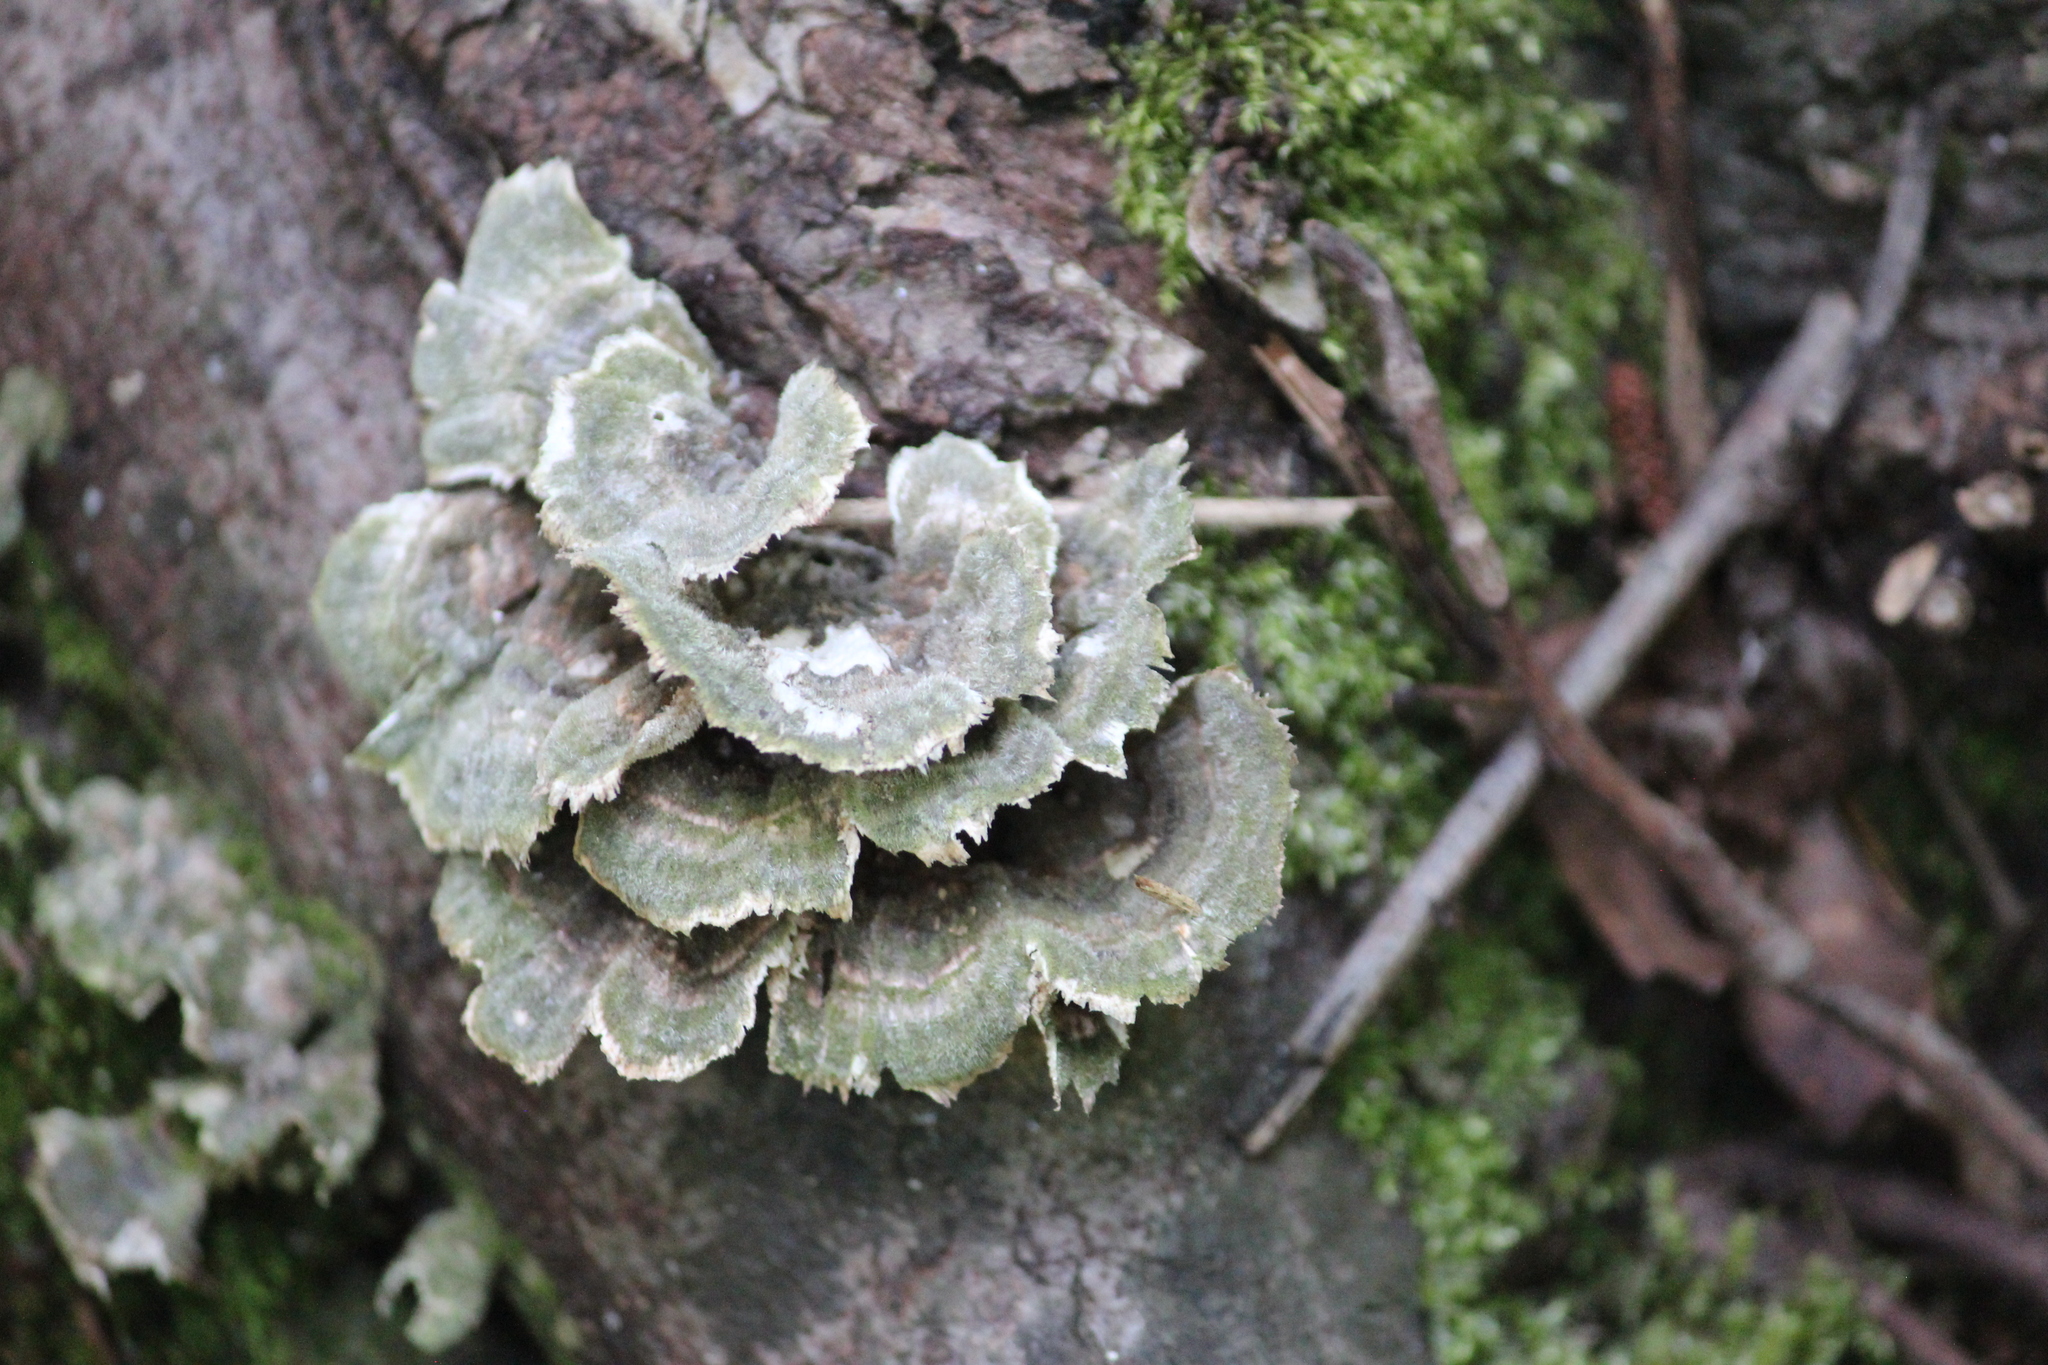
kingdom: Fungi
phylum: Basidiomycota
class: Agaricomycetes
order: Polyporales
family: Polyporaceae
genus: Trametes
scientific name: Trametes versicolor
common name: Turkeytail
